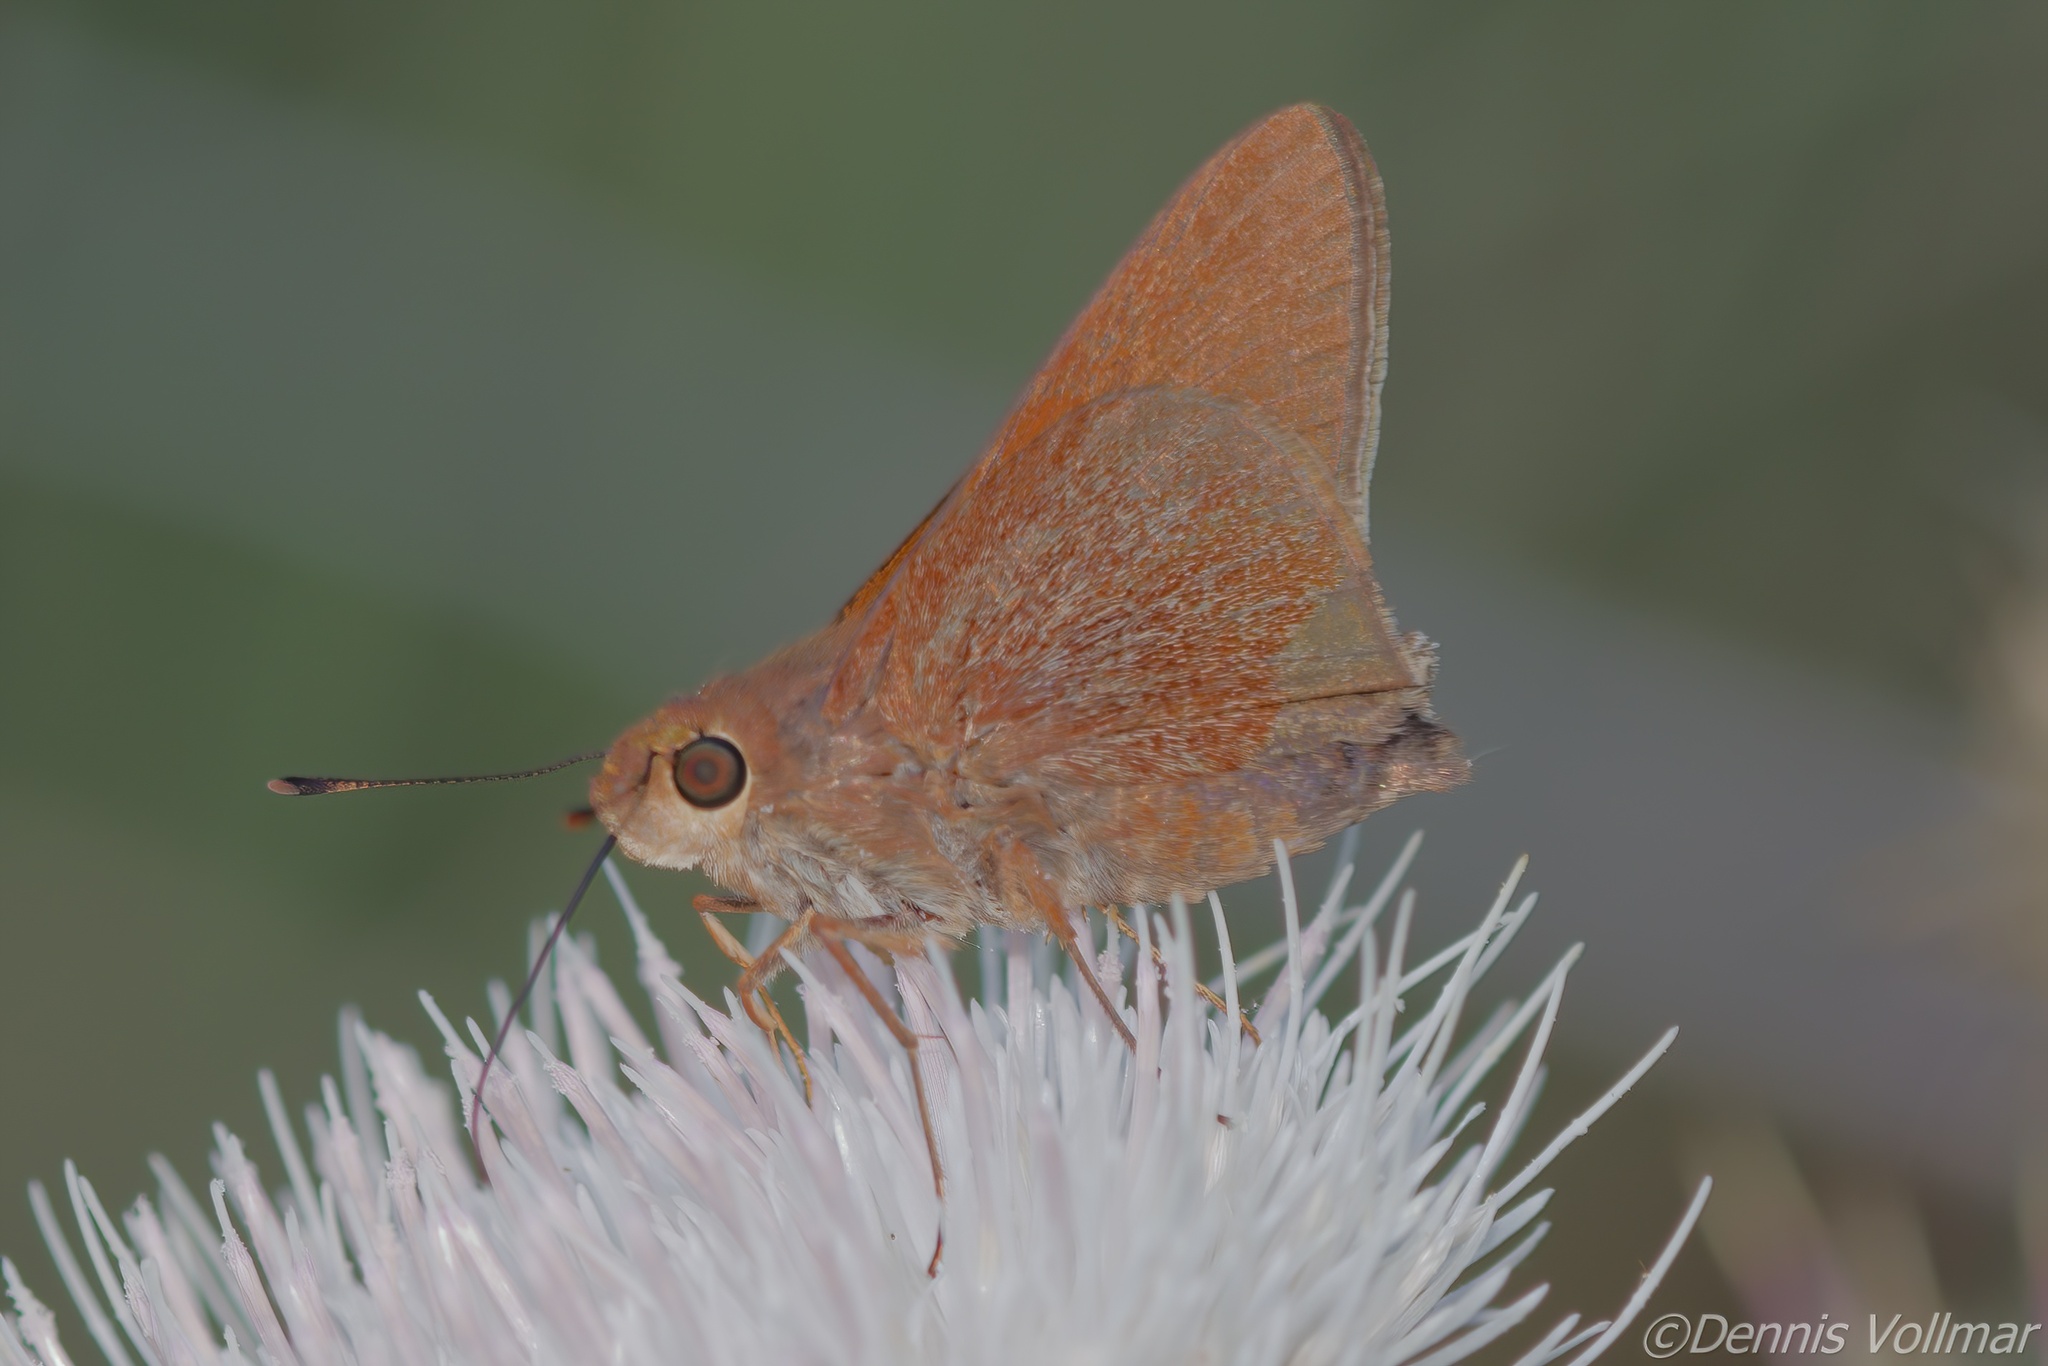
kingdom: Animalia
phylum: Arthropoda
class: Insecta
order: Lepidoptera
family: Hesperiidae
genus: Asbolis
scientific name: Asbolis capucinus
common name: Monk skipper
